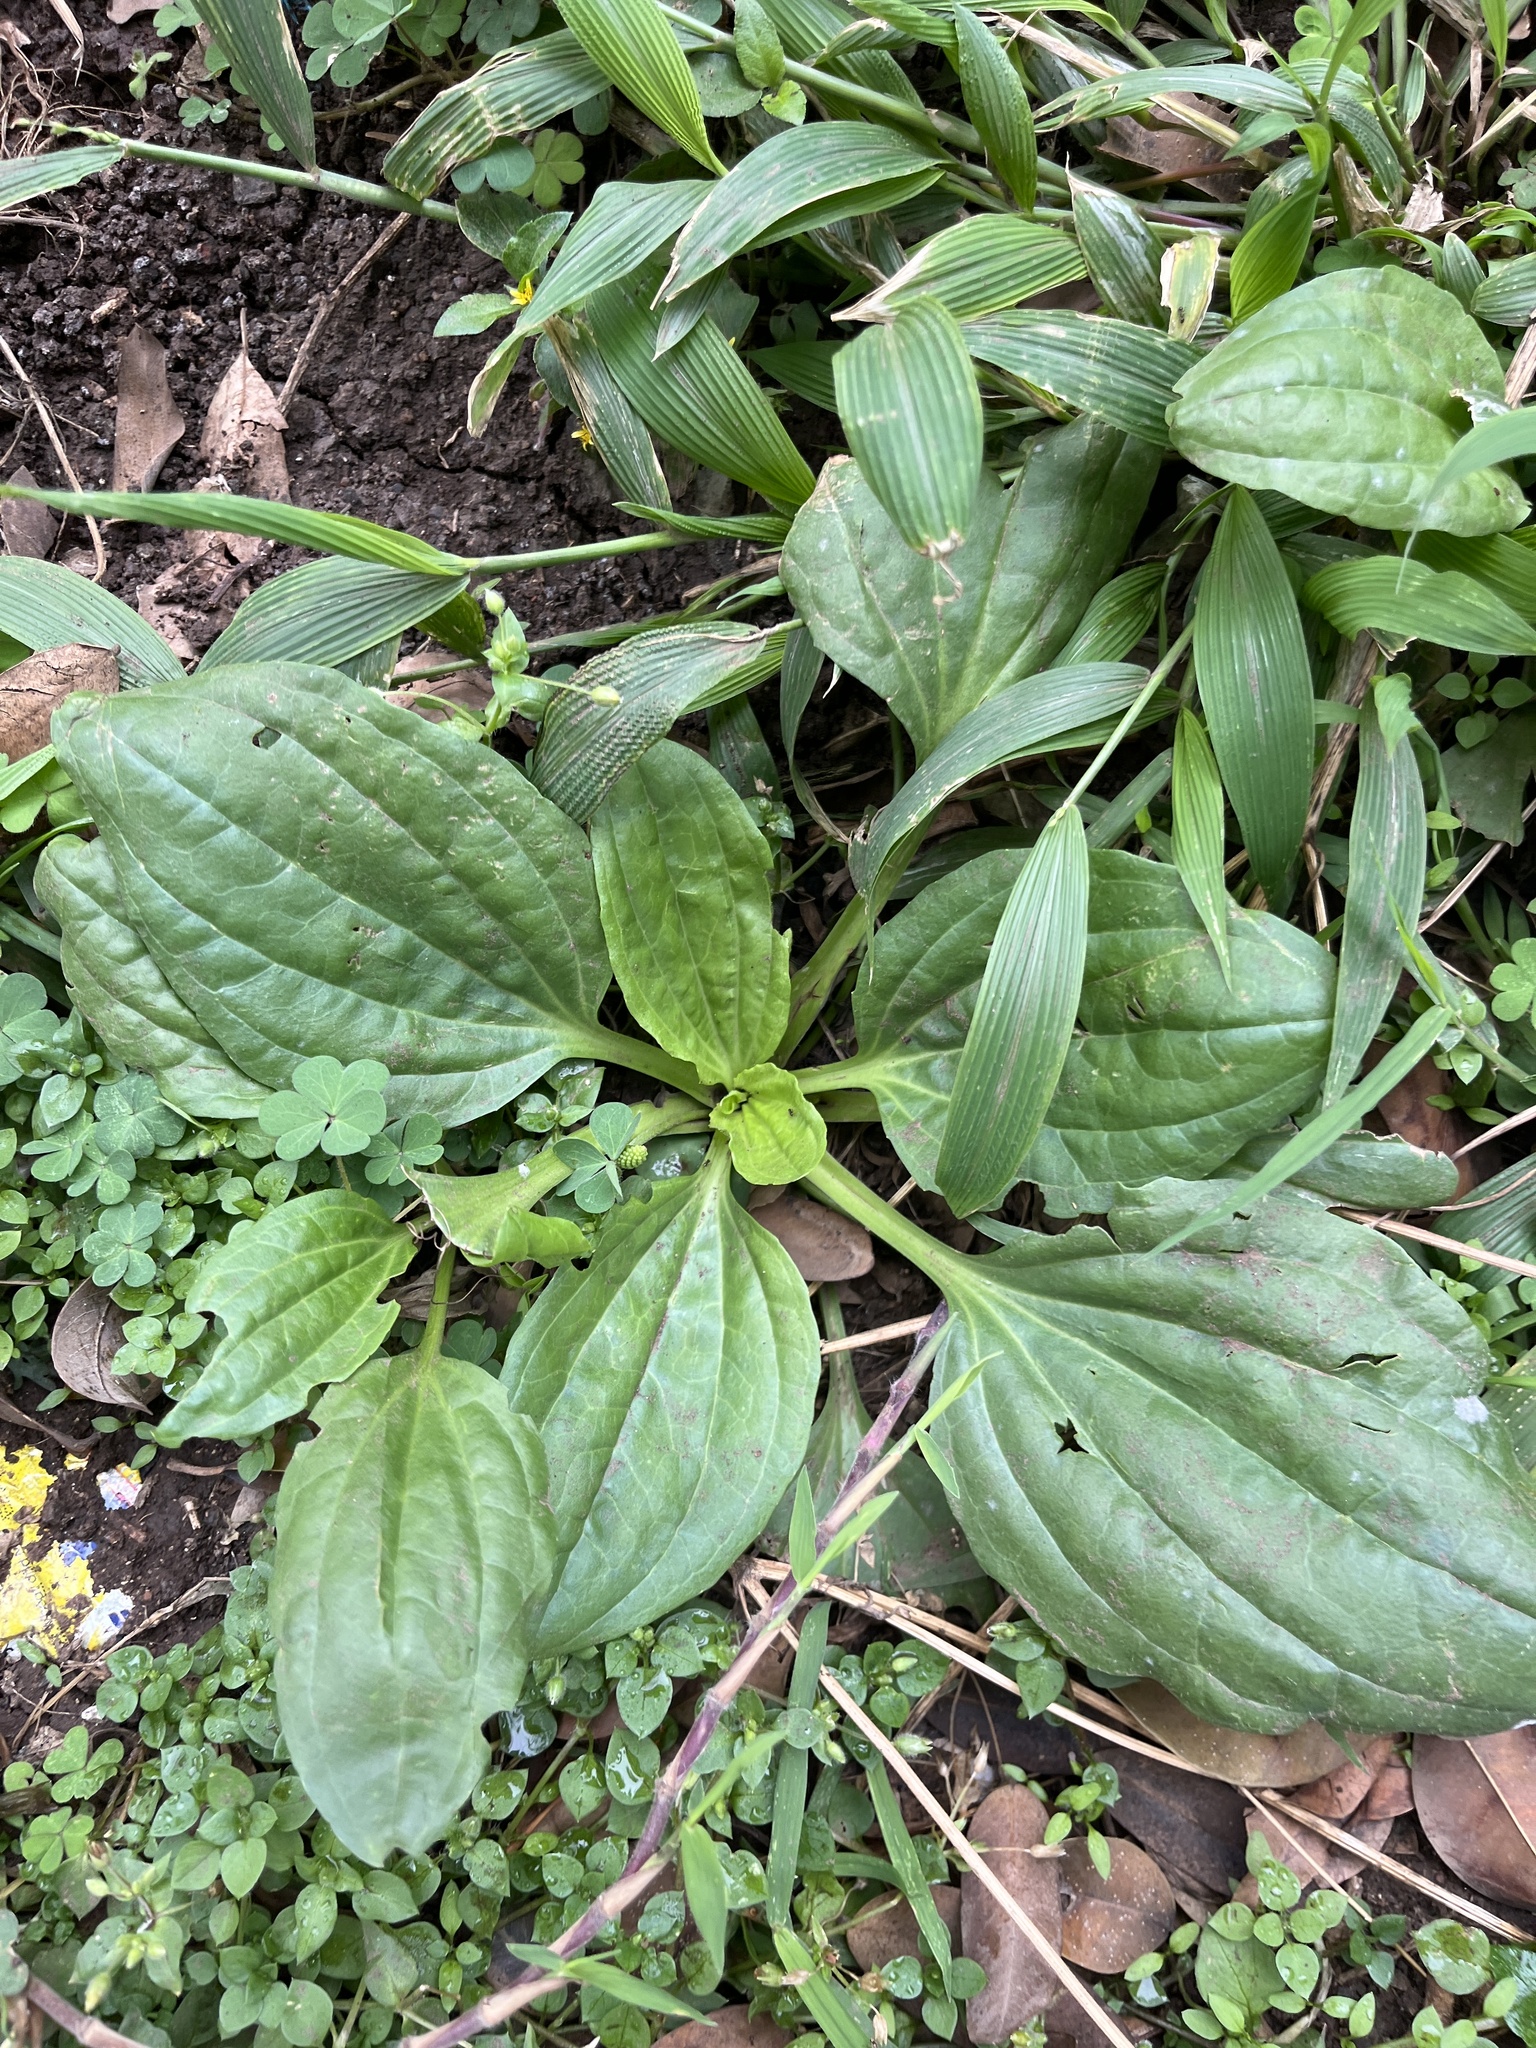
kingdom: Plantae
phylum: Tracheophyta
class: Magnoliopsida
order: Lamiales
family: Plantaginaceae
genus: Plantago
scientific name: Plantago major
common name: Common plantain
